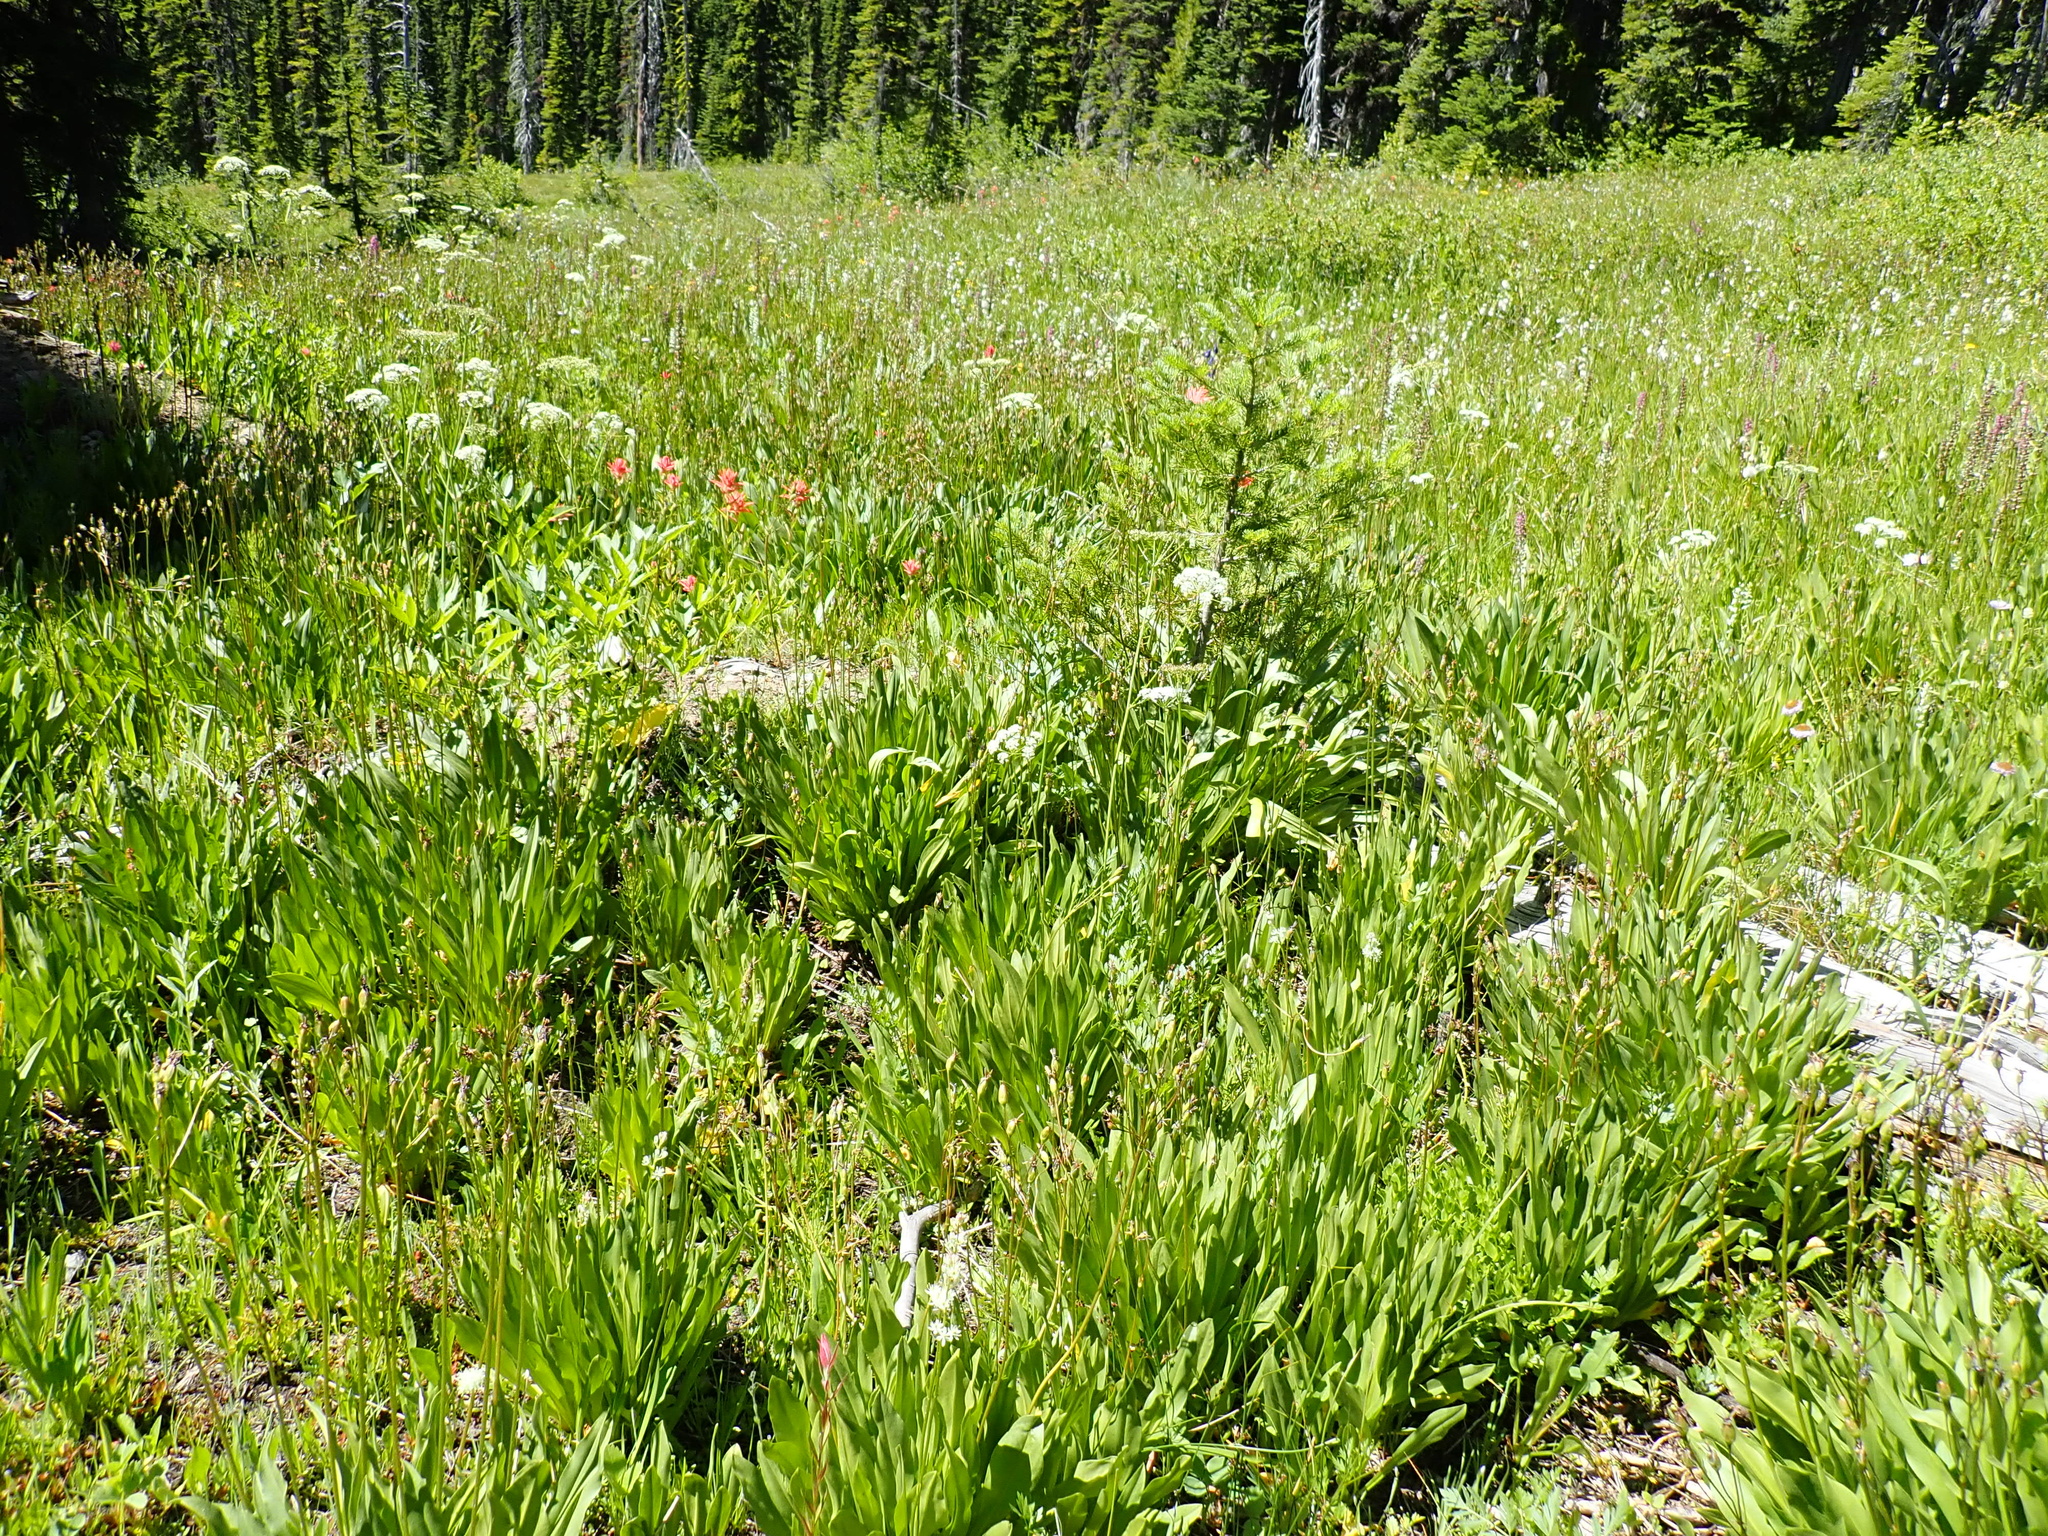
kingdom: Plantae
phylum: Tracheophyta
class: Liliopsida
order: Asparagales
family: Orchidaceae
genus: Platanthera
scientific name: Platanthera dilatata
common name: Bog candles
